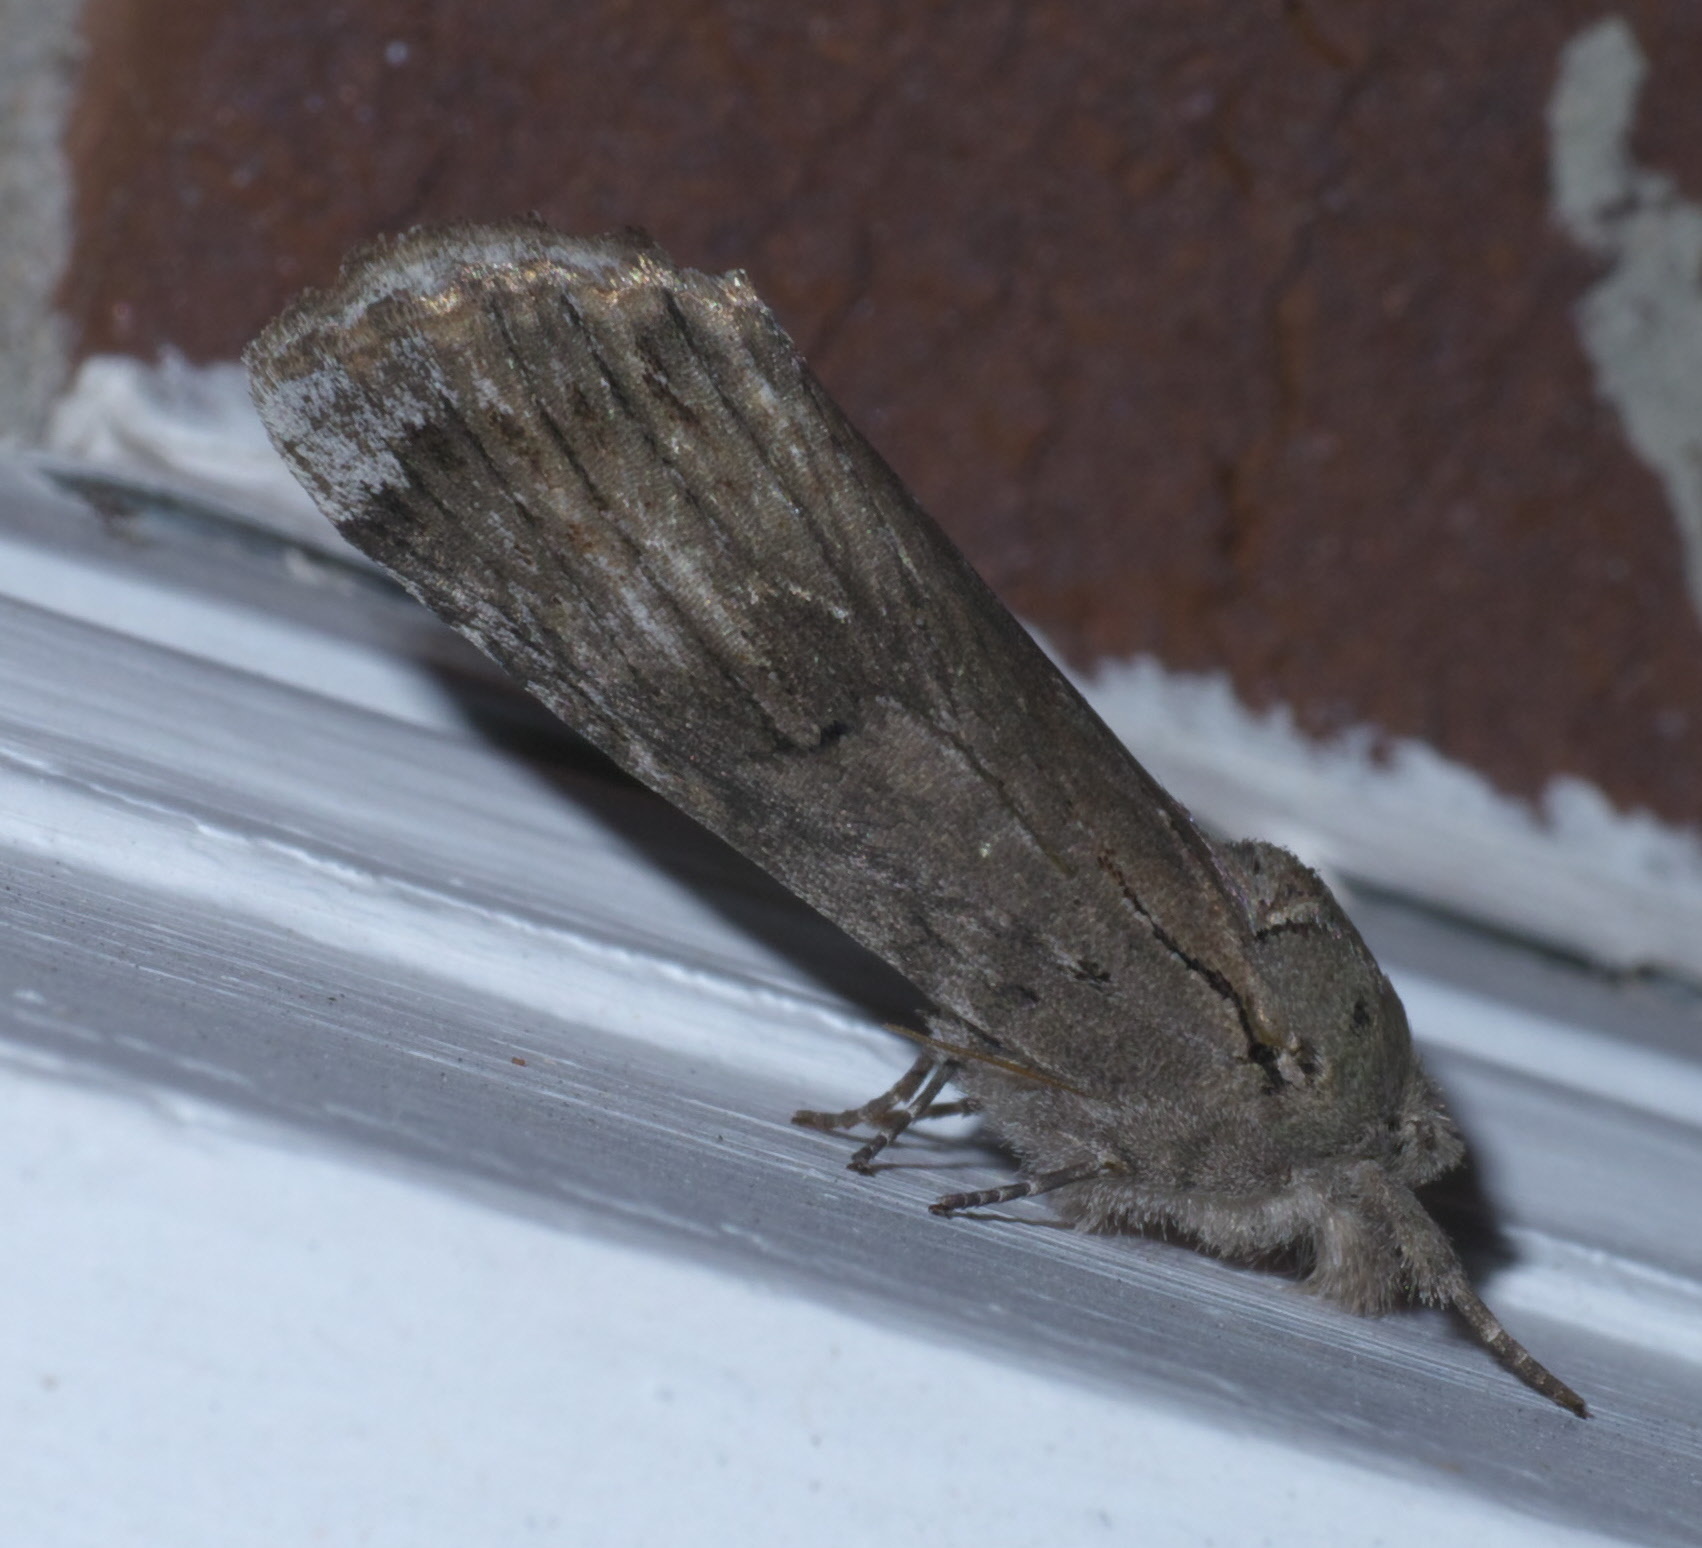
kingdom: Animalia
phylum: Arthropoda
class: Insecta
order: Lepidoptera
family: Notodontidae
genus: Schizura
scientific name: Schizura
